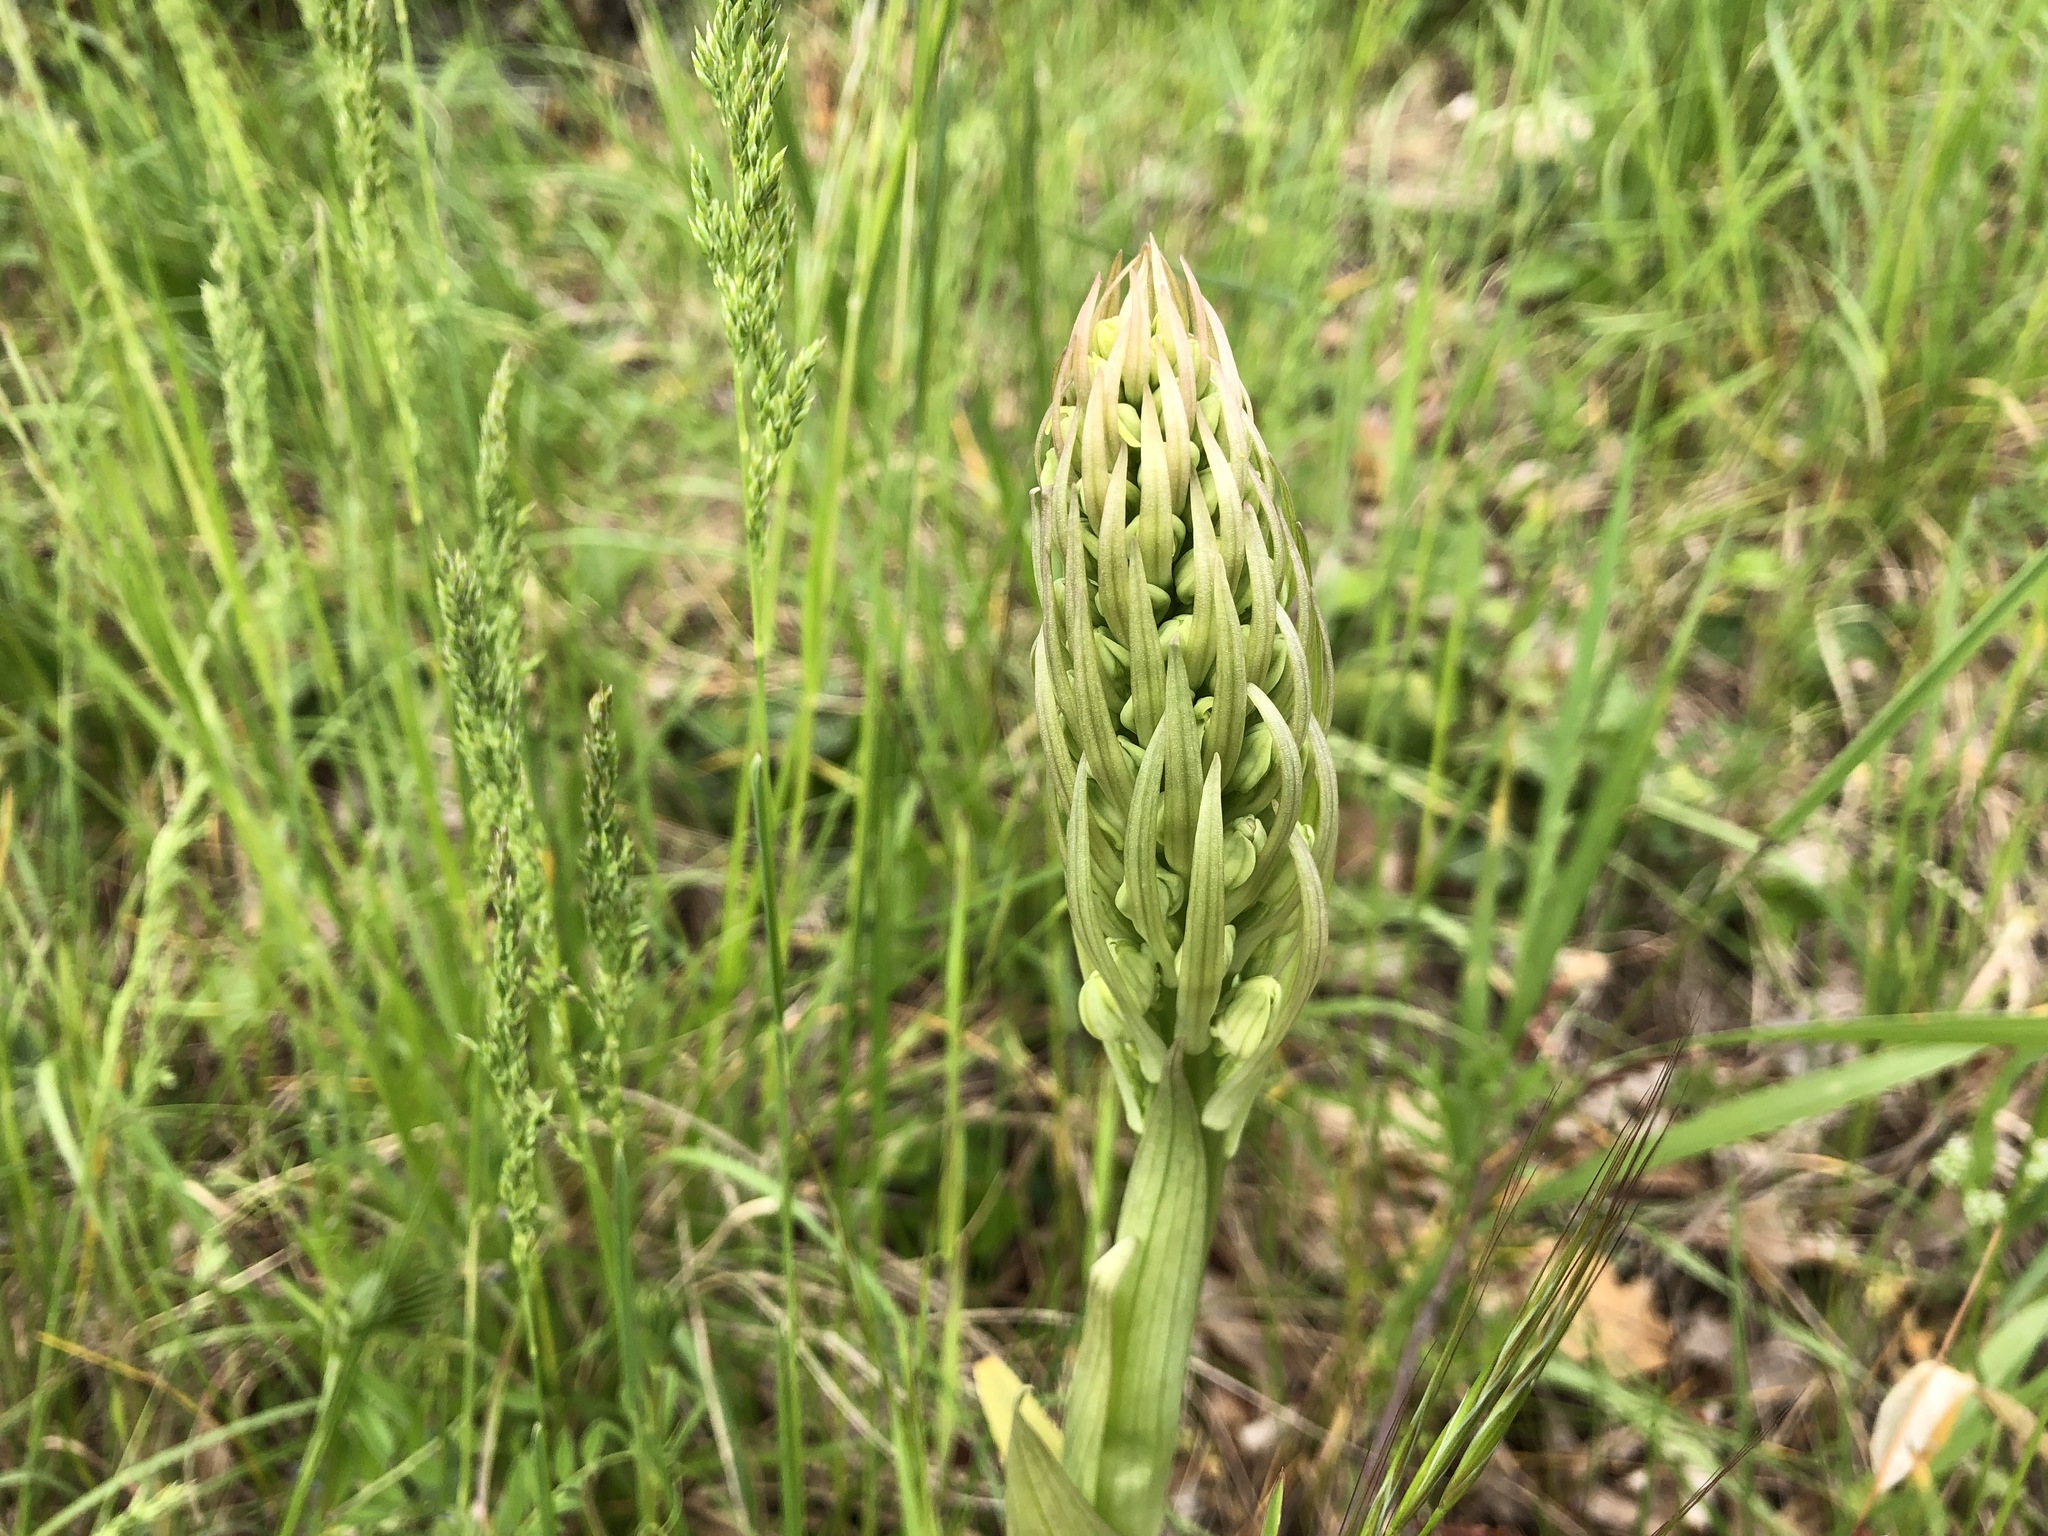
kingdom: Plantae
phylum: Tracheophyta
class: Liliopsida
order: Asparagales
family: Orchidaceae
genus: Himantoglossum
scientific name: Himantoglossum hircinum
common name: Lizard orchid
